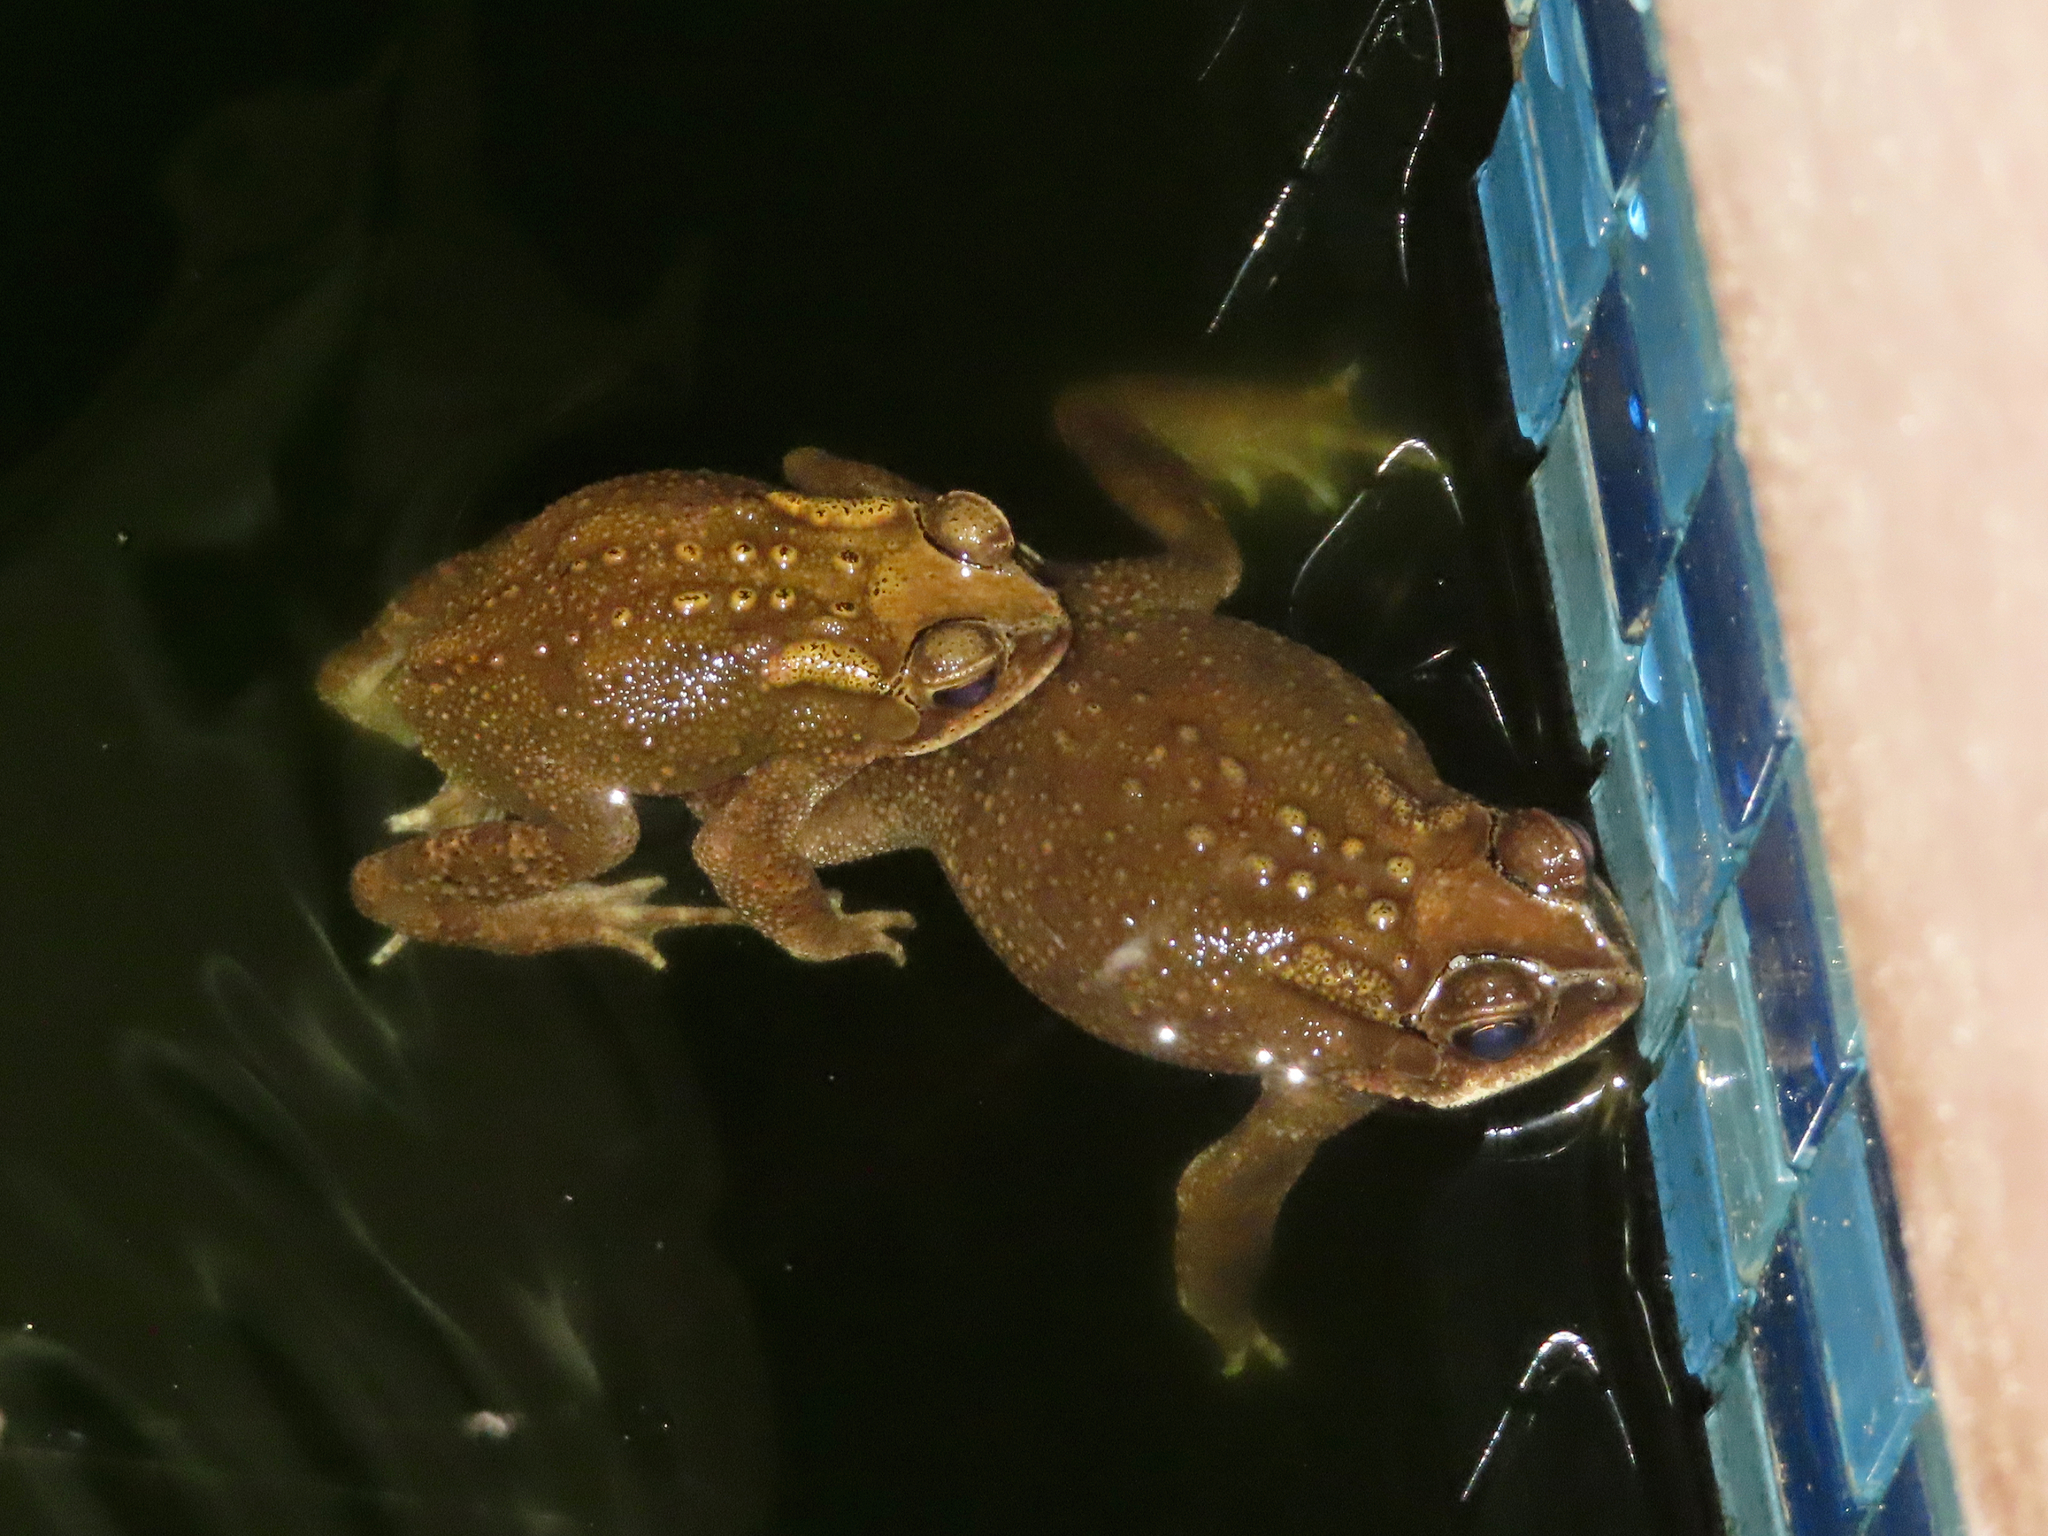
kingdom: Animalia
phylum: Chordata
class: Amphibia
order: Anura
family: Bufonidae
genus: Duttaphrynus
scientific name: Duttaphrynus melanostictus
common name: Common sunda toad
